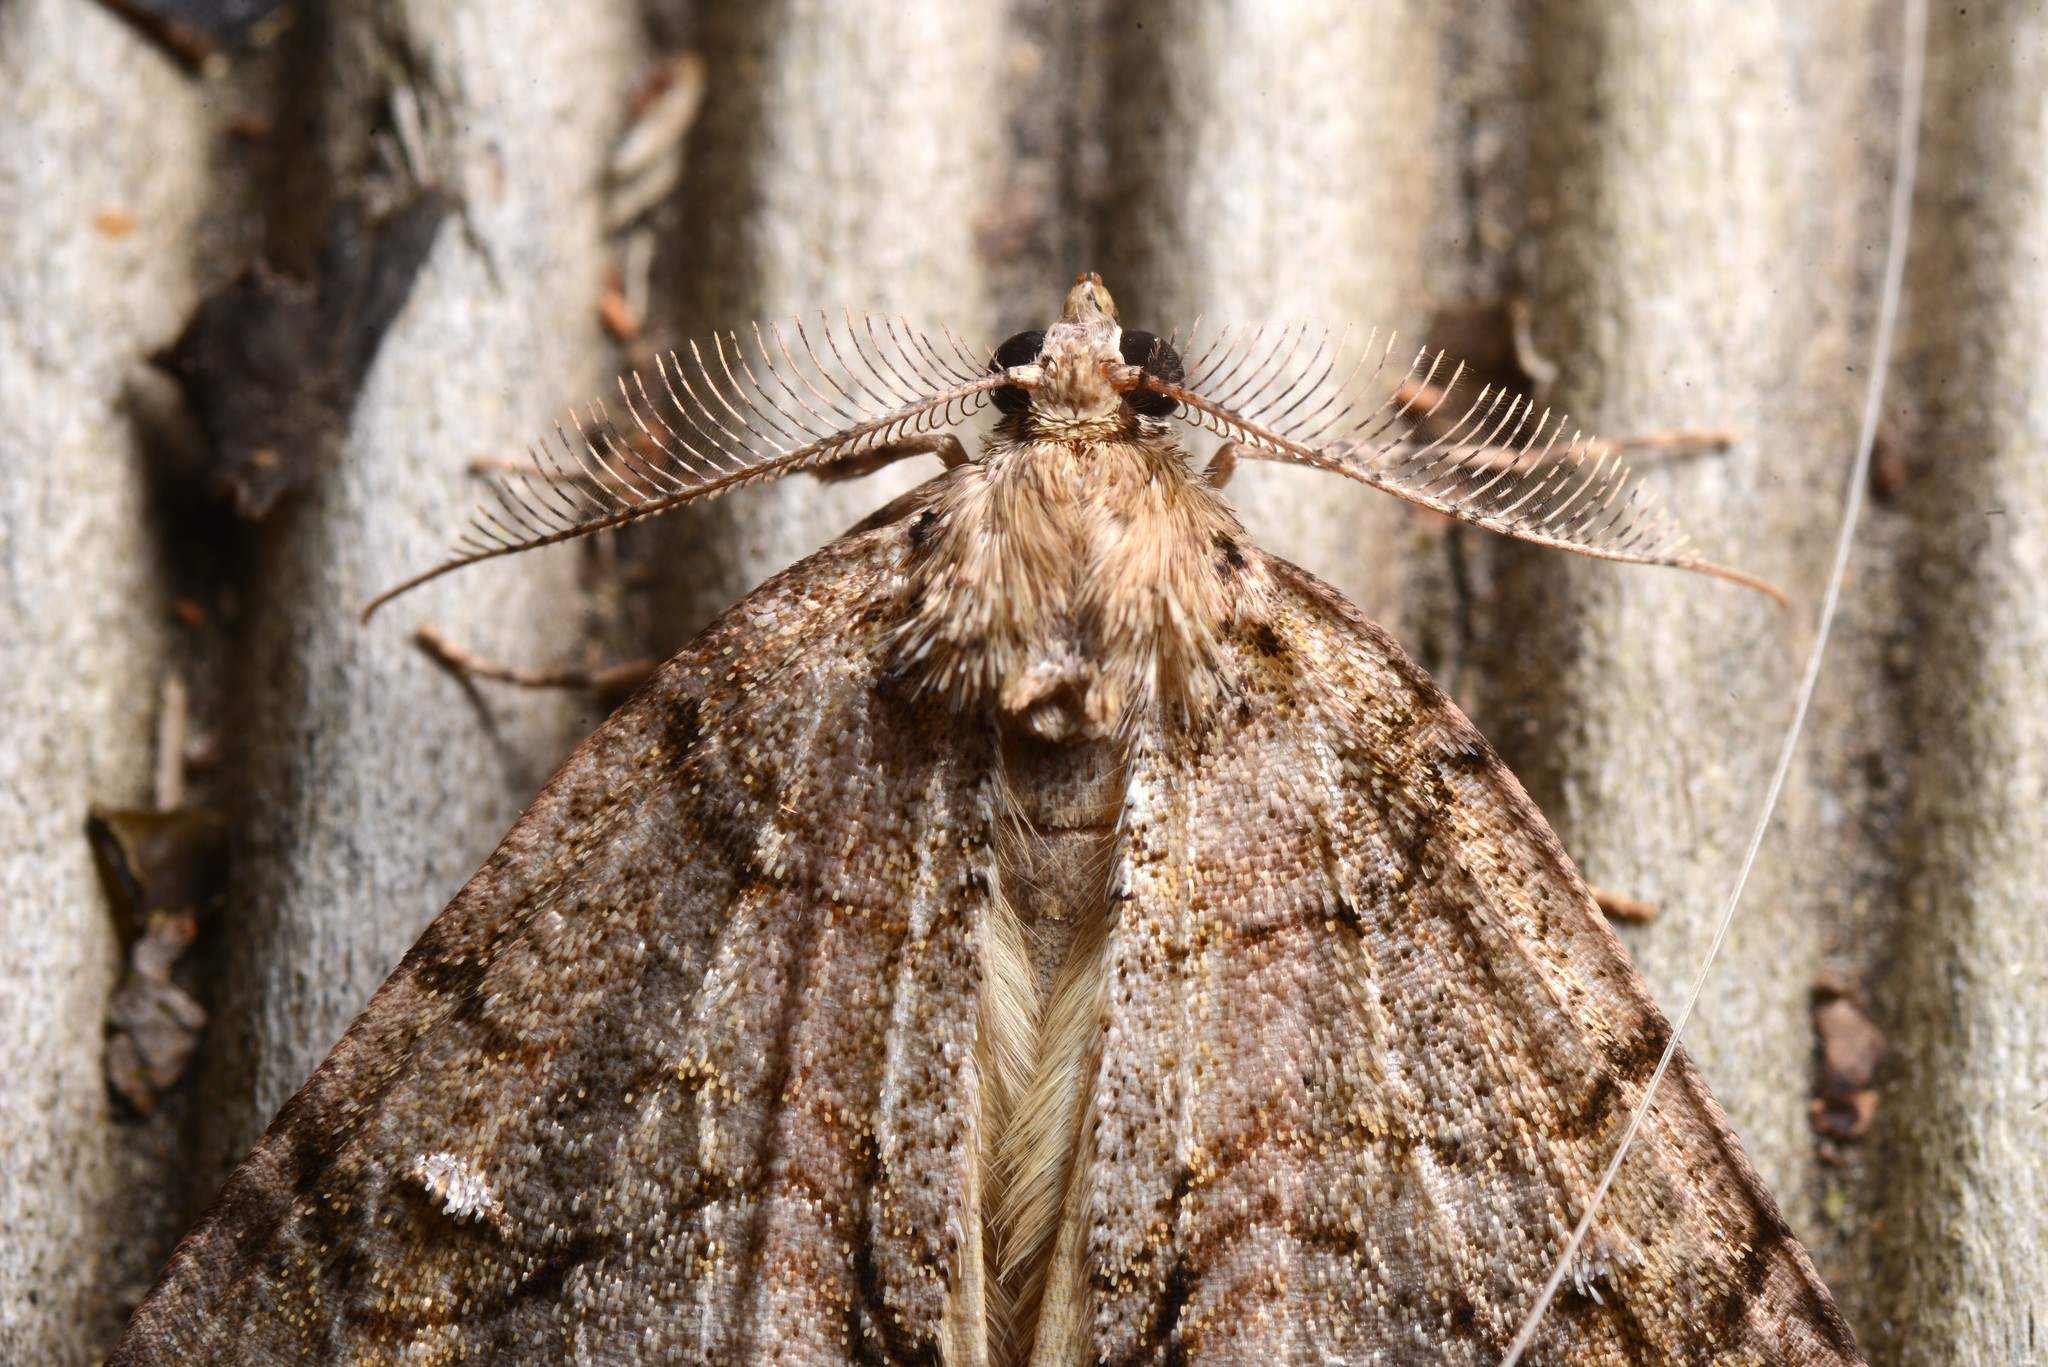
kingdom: Animalia
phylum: Arthropoda
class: Insecta
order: Lepidoptera
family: Geometridae
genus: Pseudocoremia
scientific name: Pseudocoremia suavis
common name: Common forest looper
